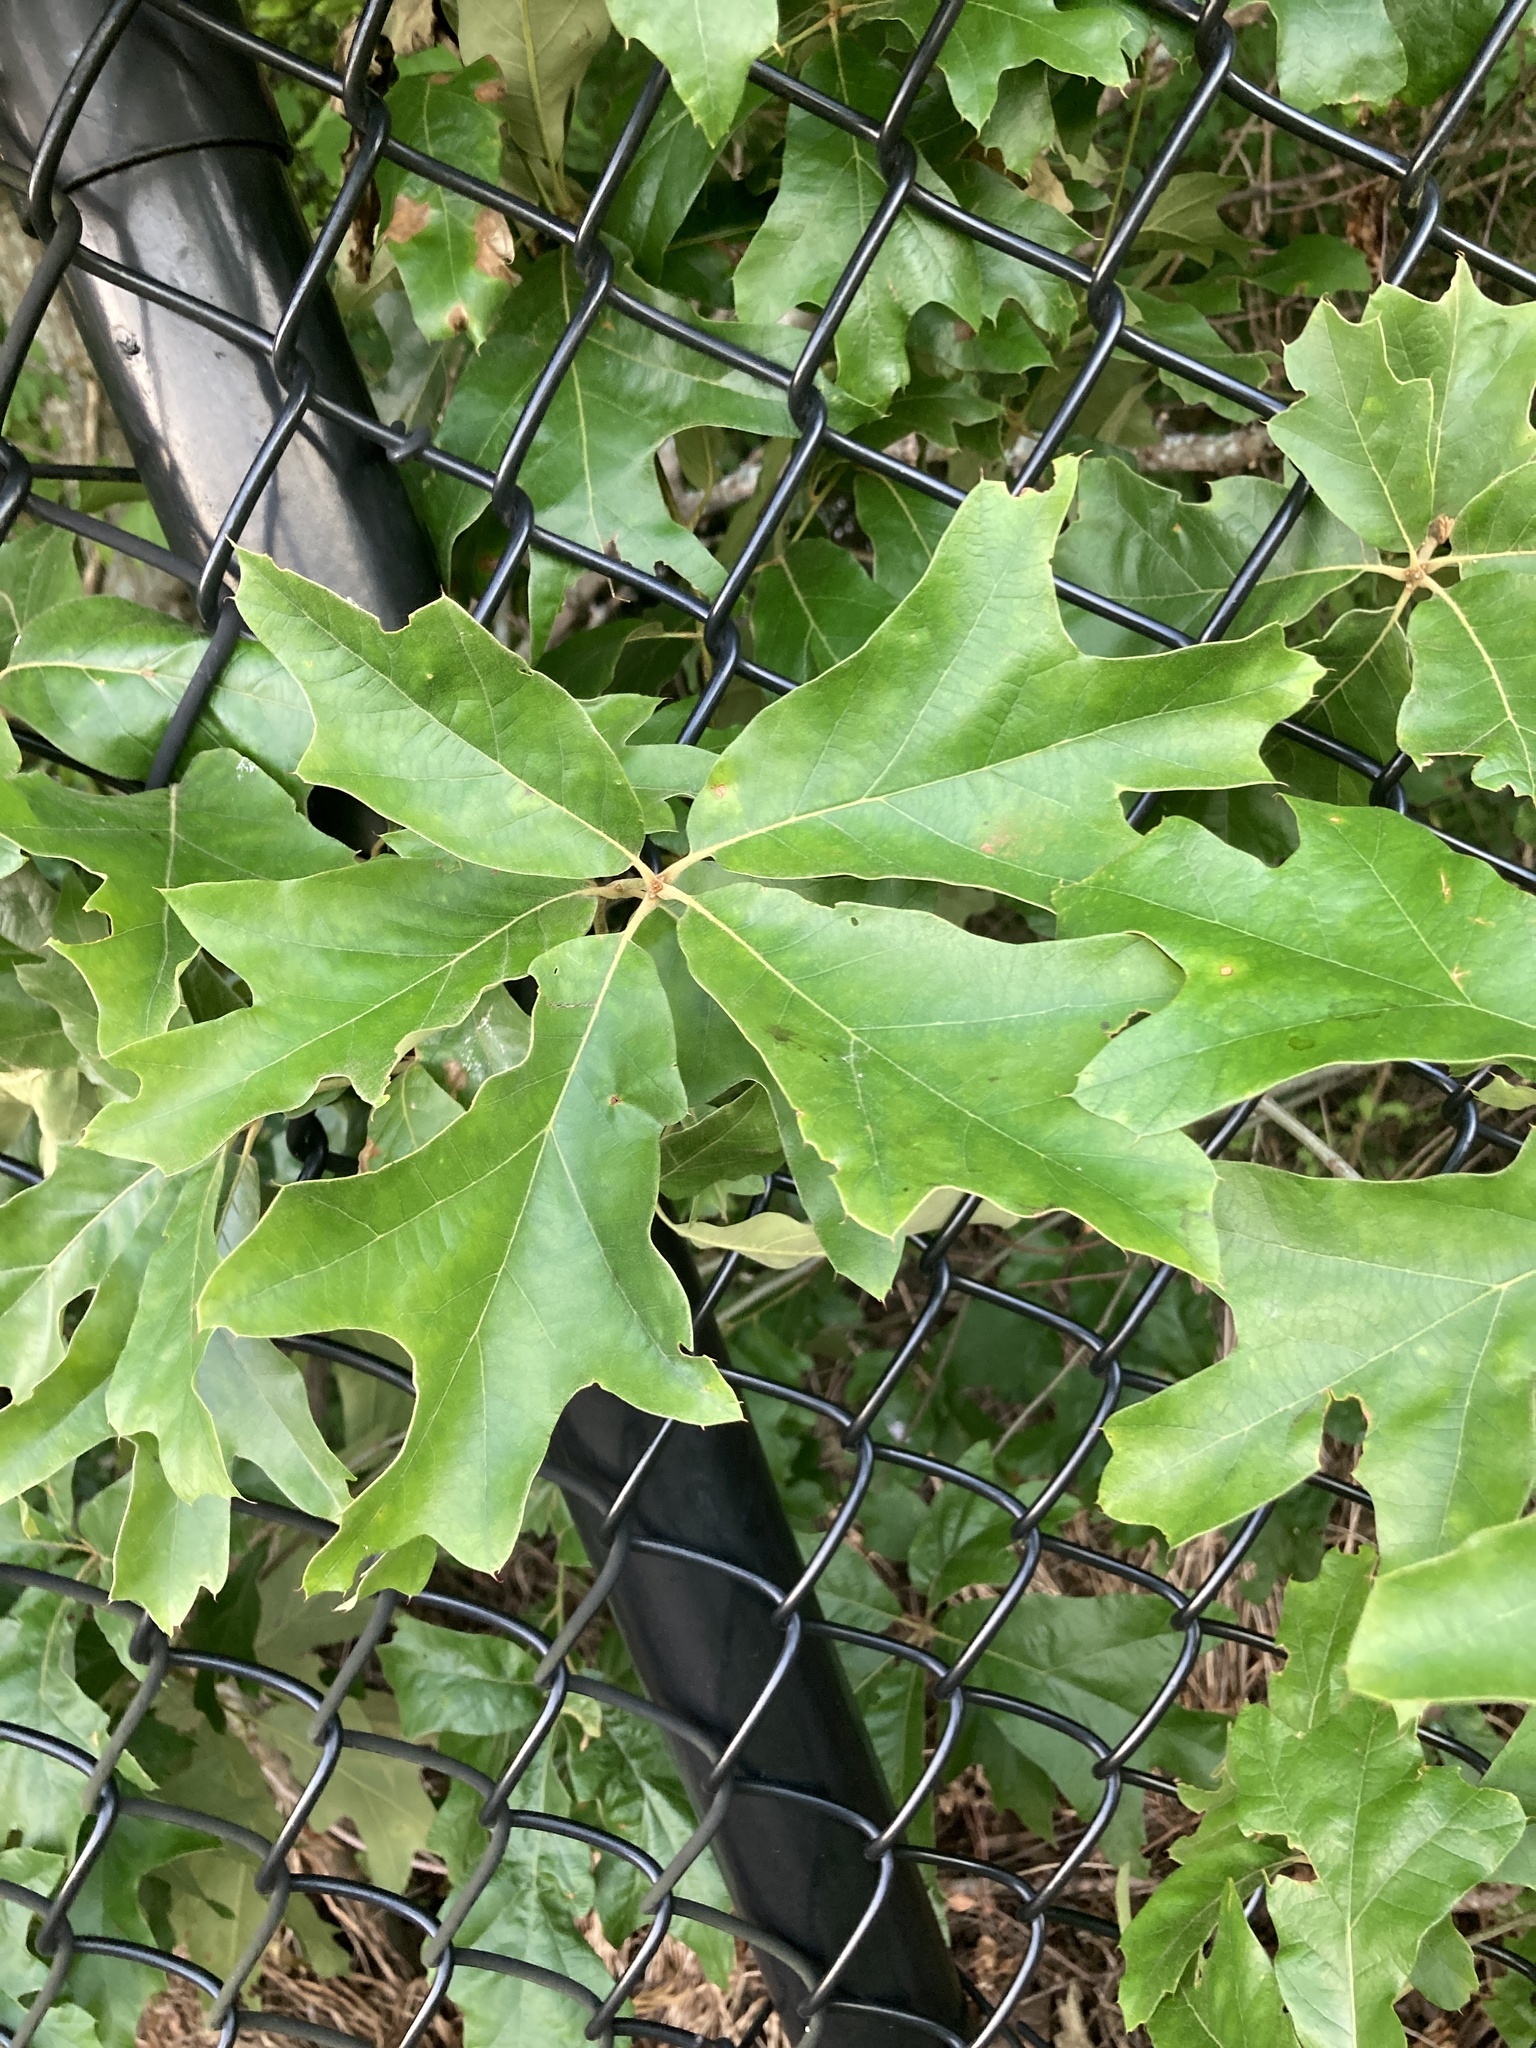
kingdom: Plantae
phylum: Tracheophyta
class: Magnoliopsida
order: Fagales
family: Fagaceae
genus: Quercus
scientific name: Quercus falcata
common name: Southern red oak
